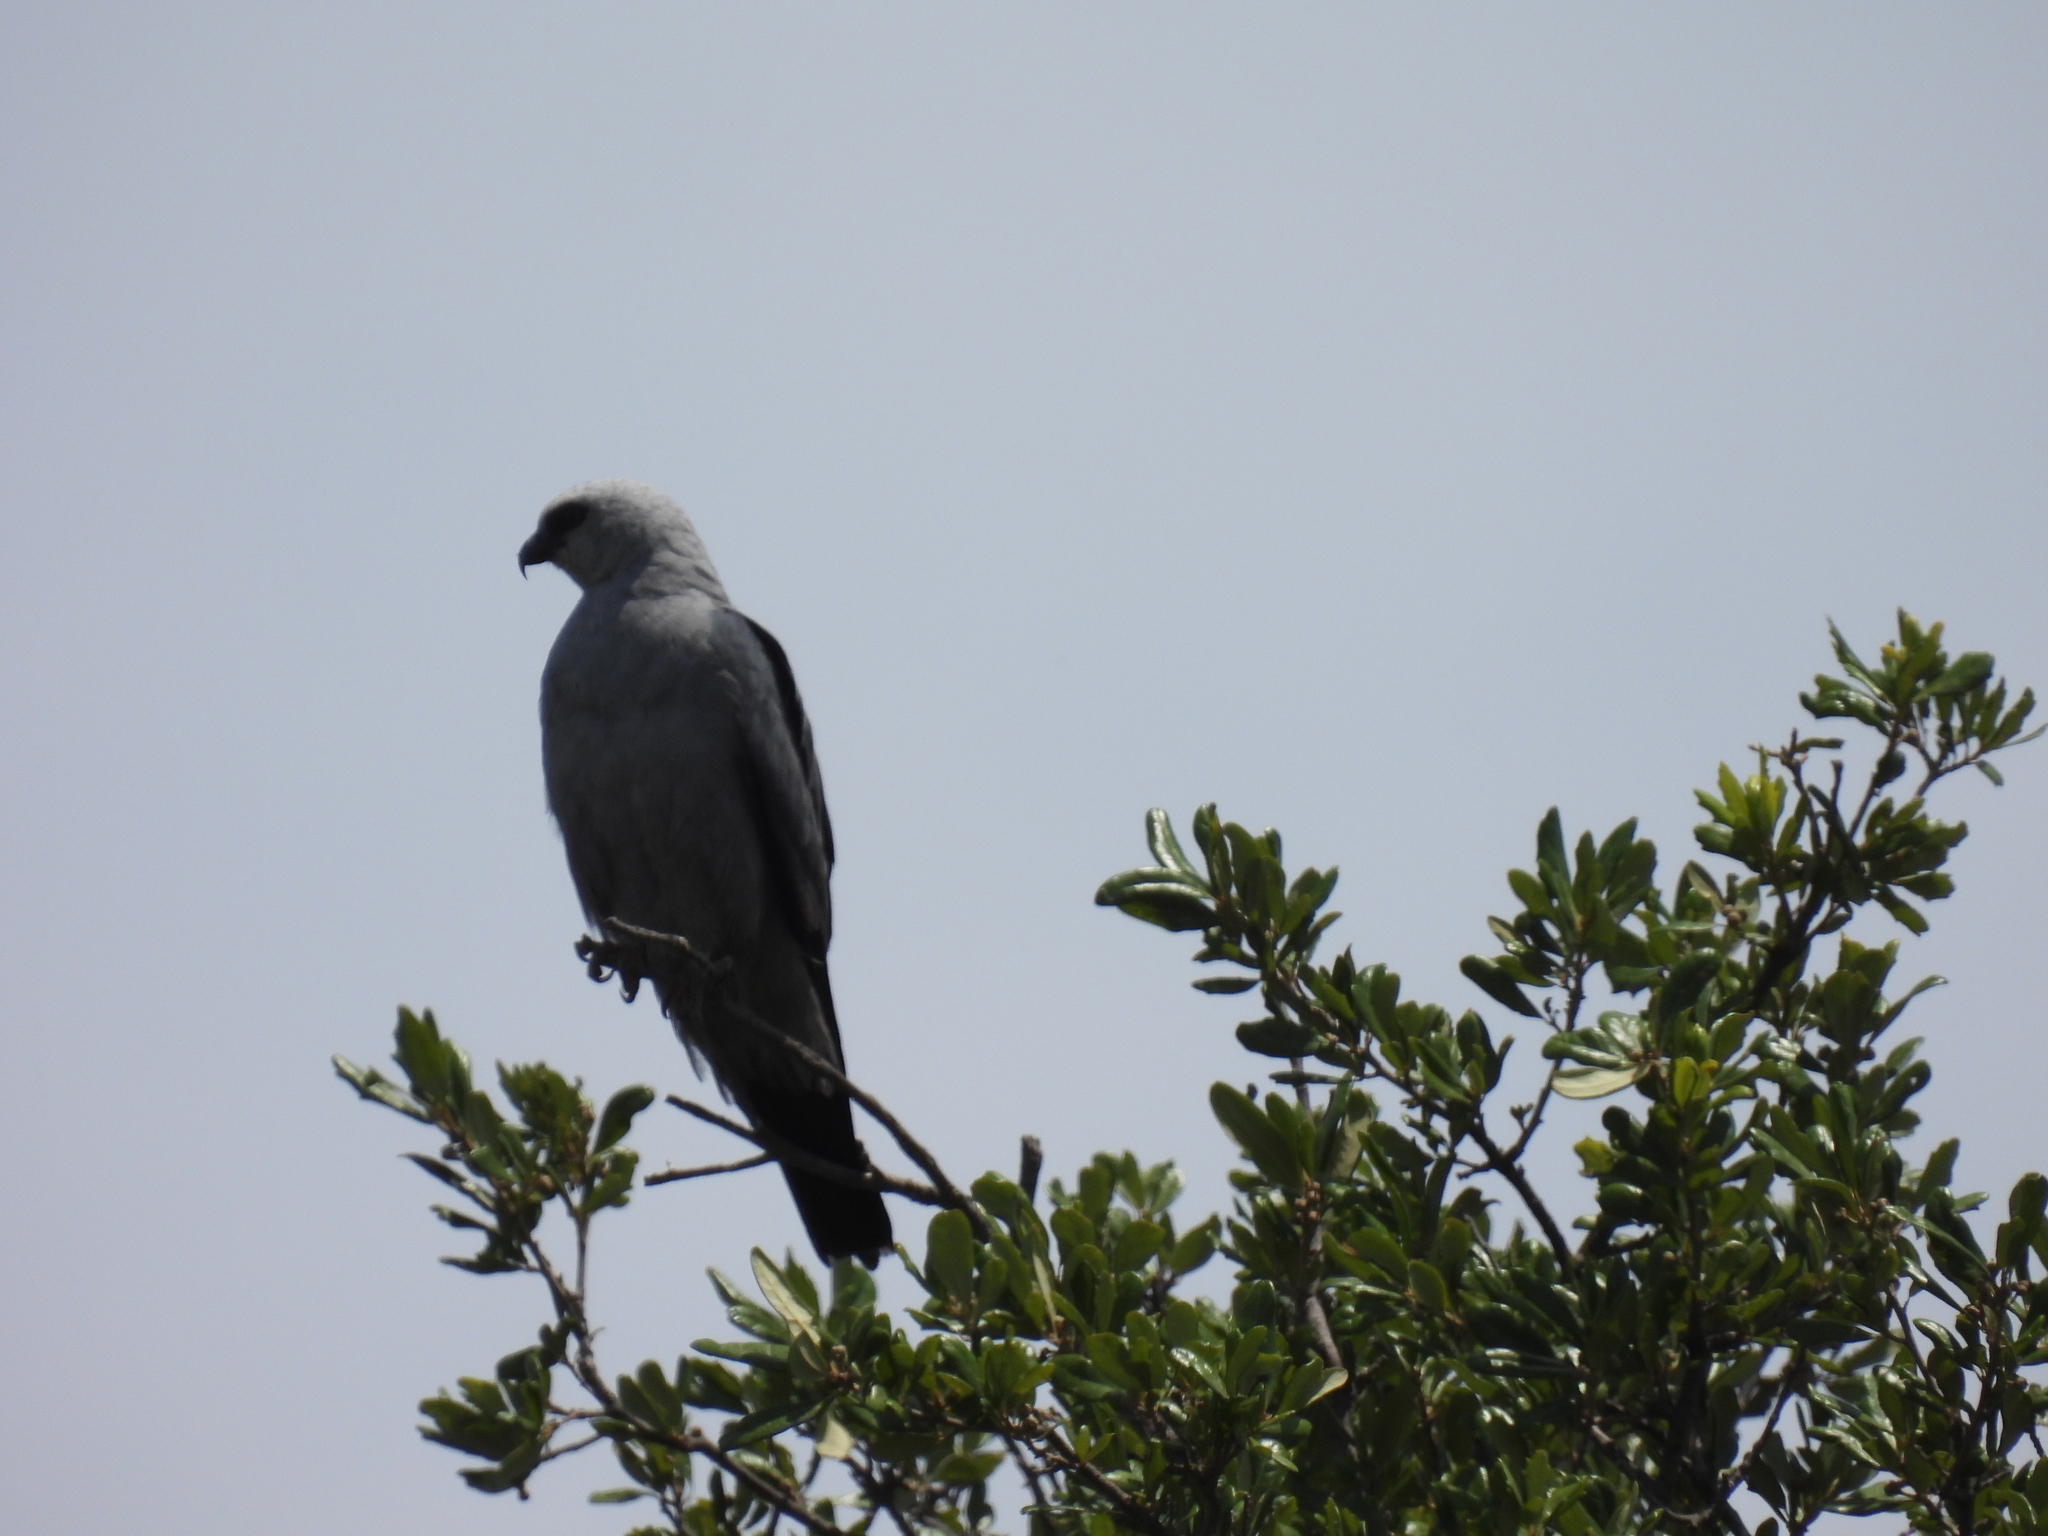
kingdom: Animalia
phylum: Chordata
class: Aves
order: Accipitriformes
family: Accipitridae
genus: Ictinia
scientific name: Ictinia mississippiensis
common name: Mississippi kite
